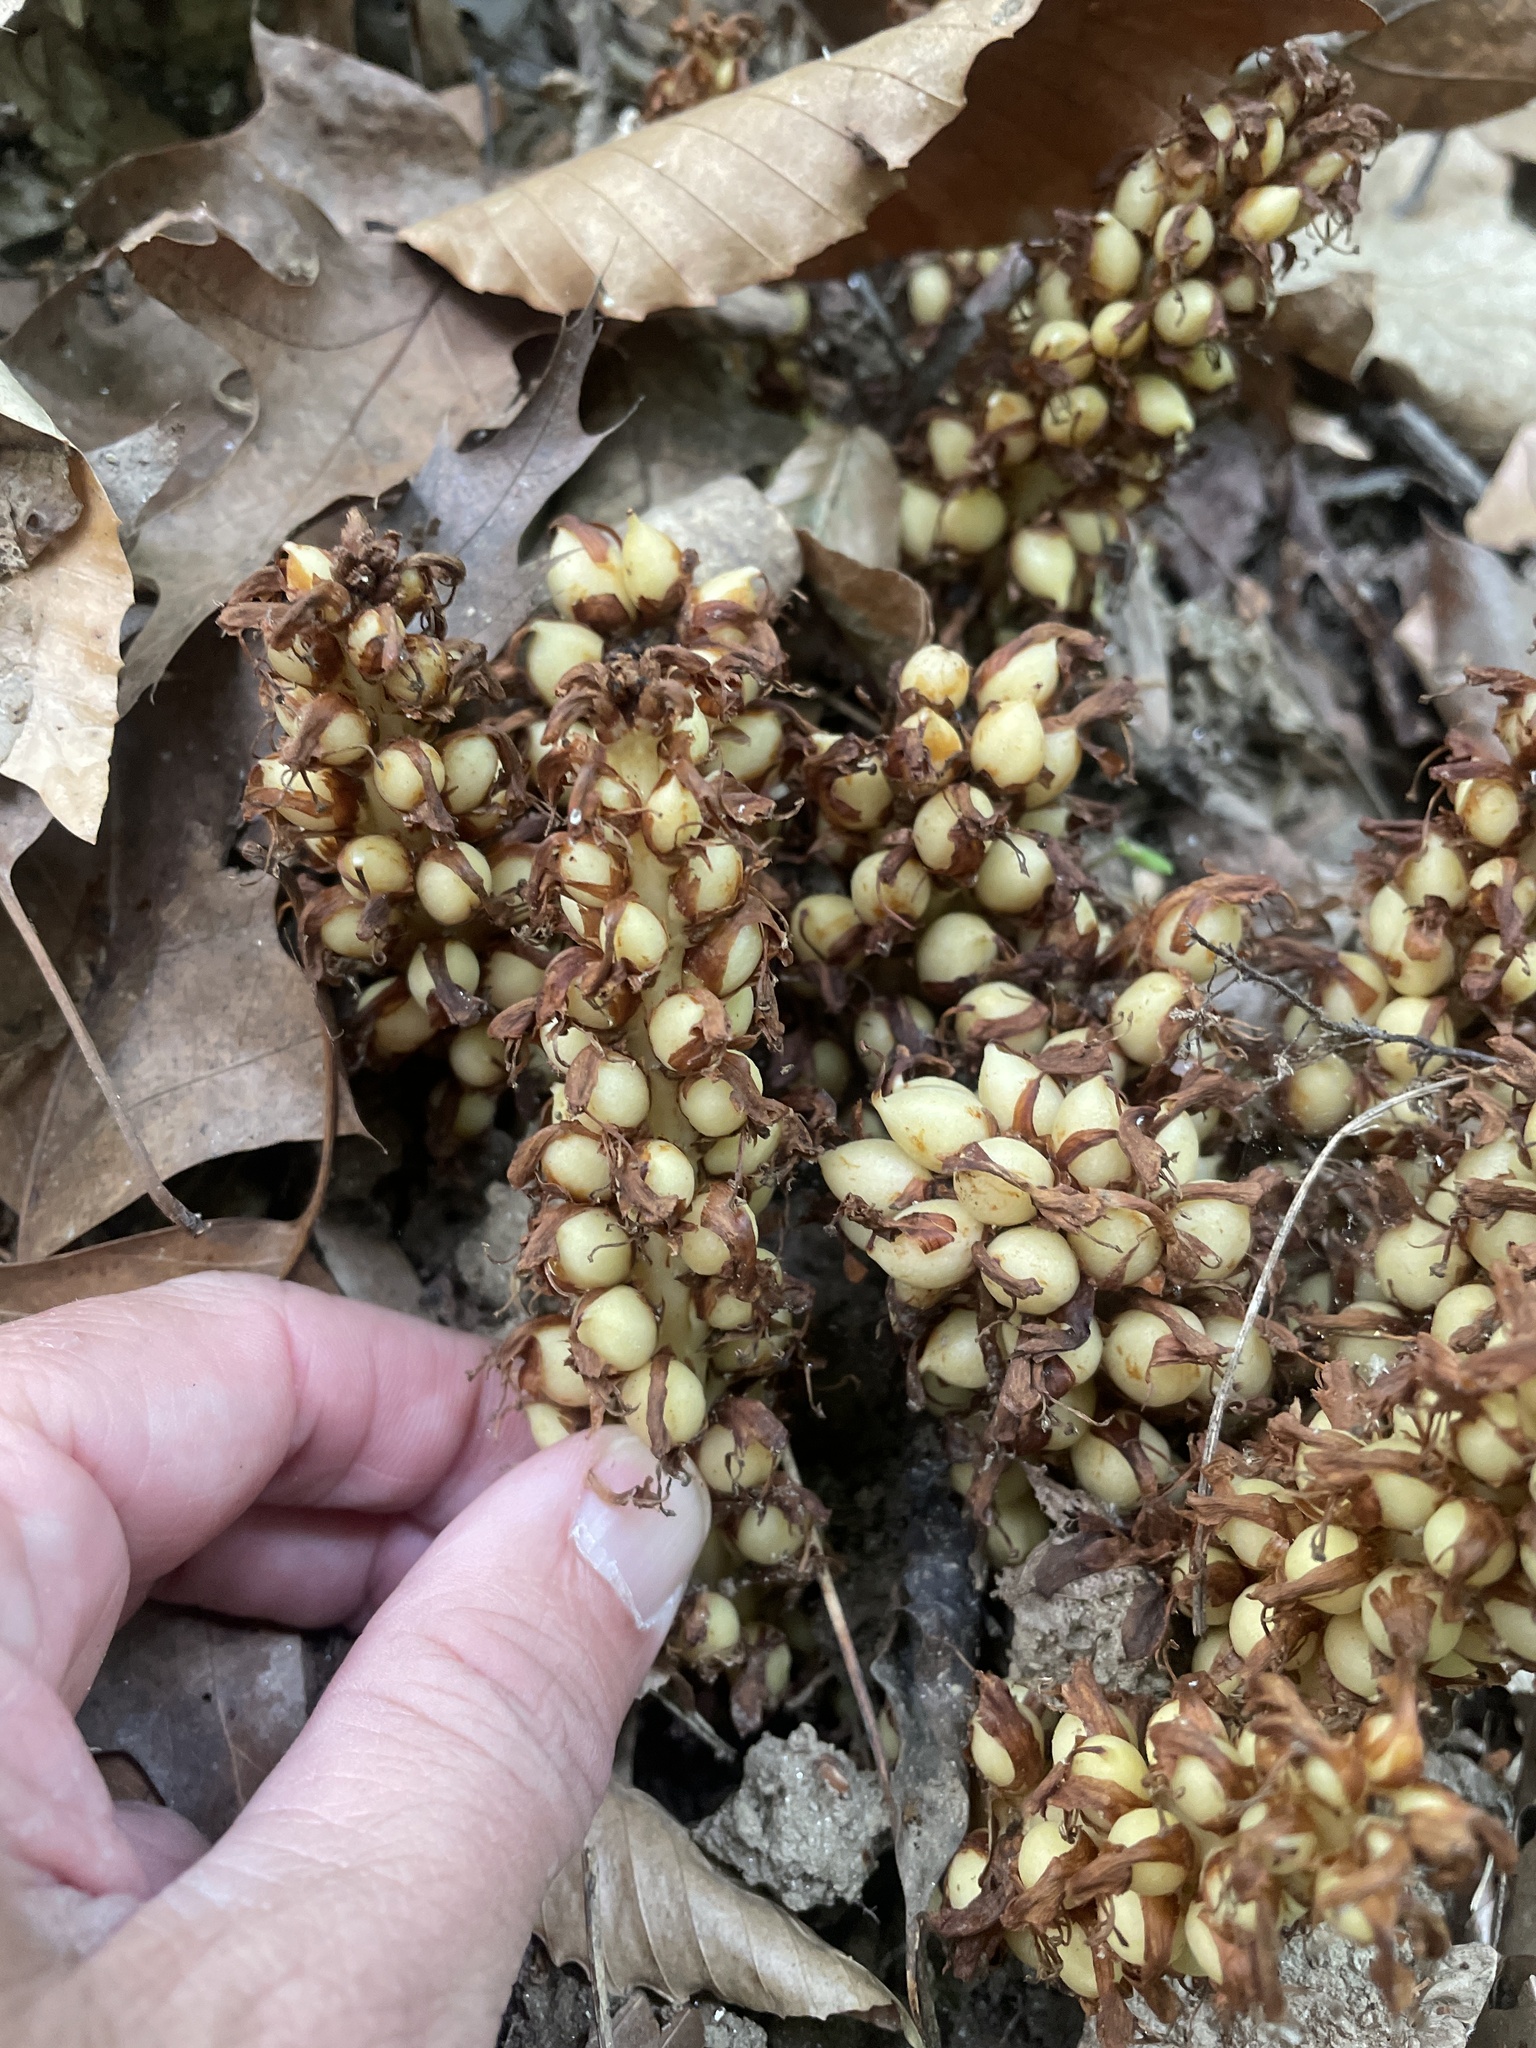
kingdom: Plantae
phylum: Tracheophyta
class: Magnoliopsida
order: Lamiales
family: Orobanchaceae
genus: Conopholis
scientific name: Conopholis americana
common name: American cancer-root
